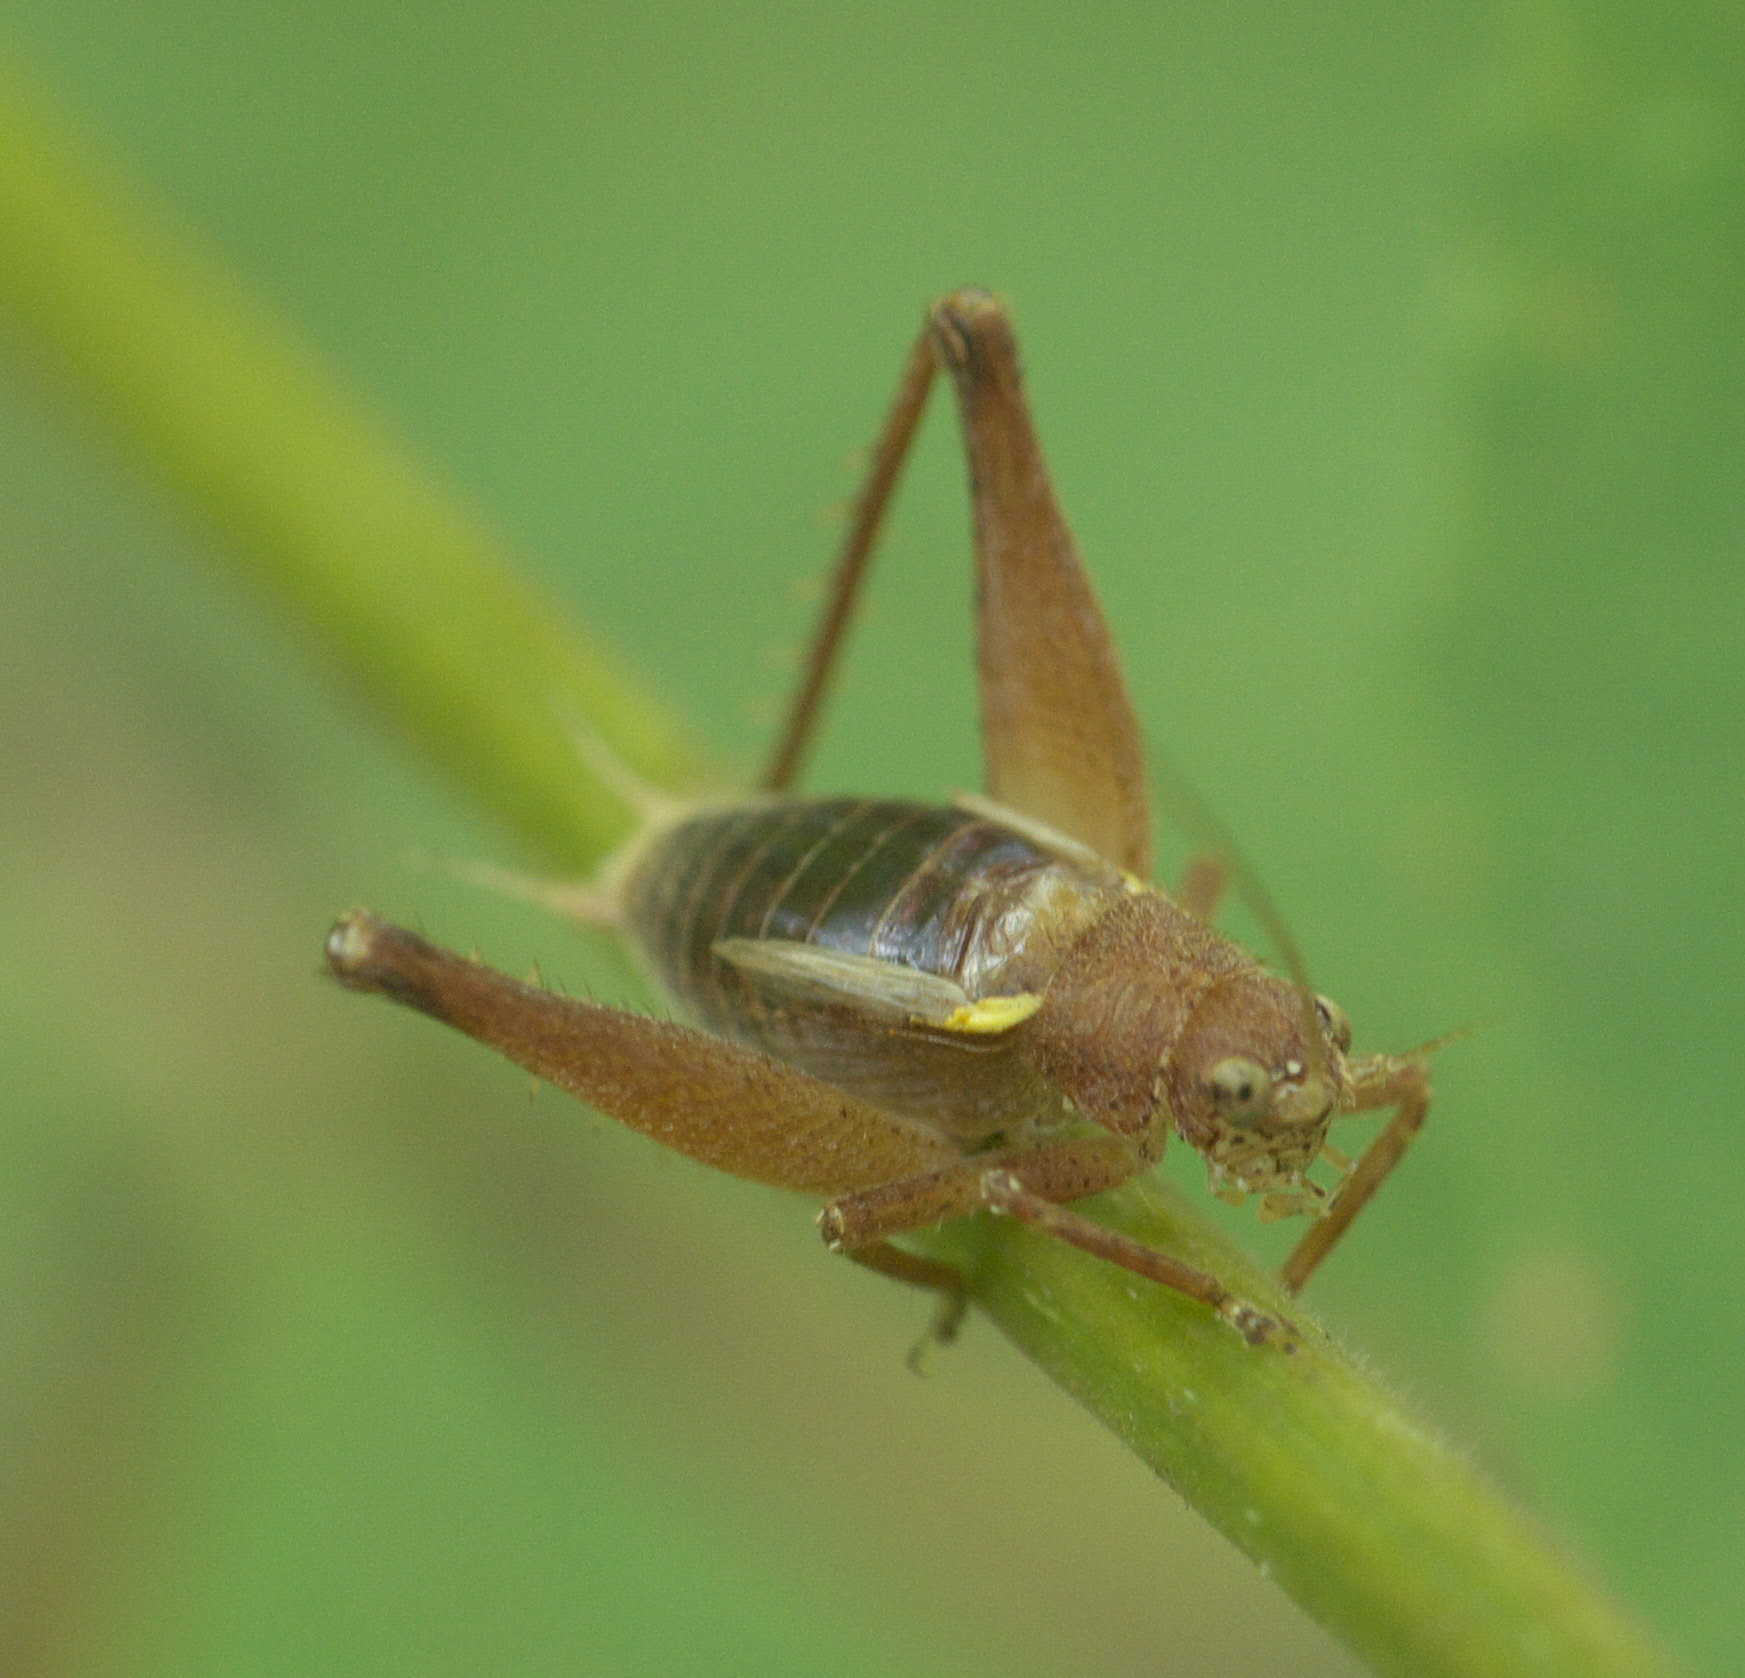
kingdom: Animalia
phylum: Arthropoda
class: Insecta
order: Orthoptera
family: Gryllidae
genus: Hapithus
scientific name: Hapithus agitator
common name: Restless bush cricket
